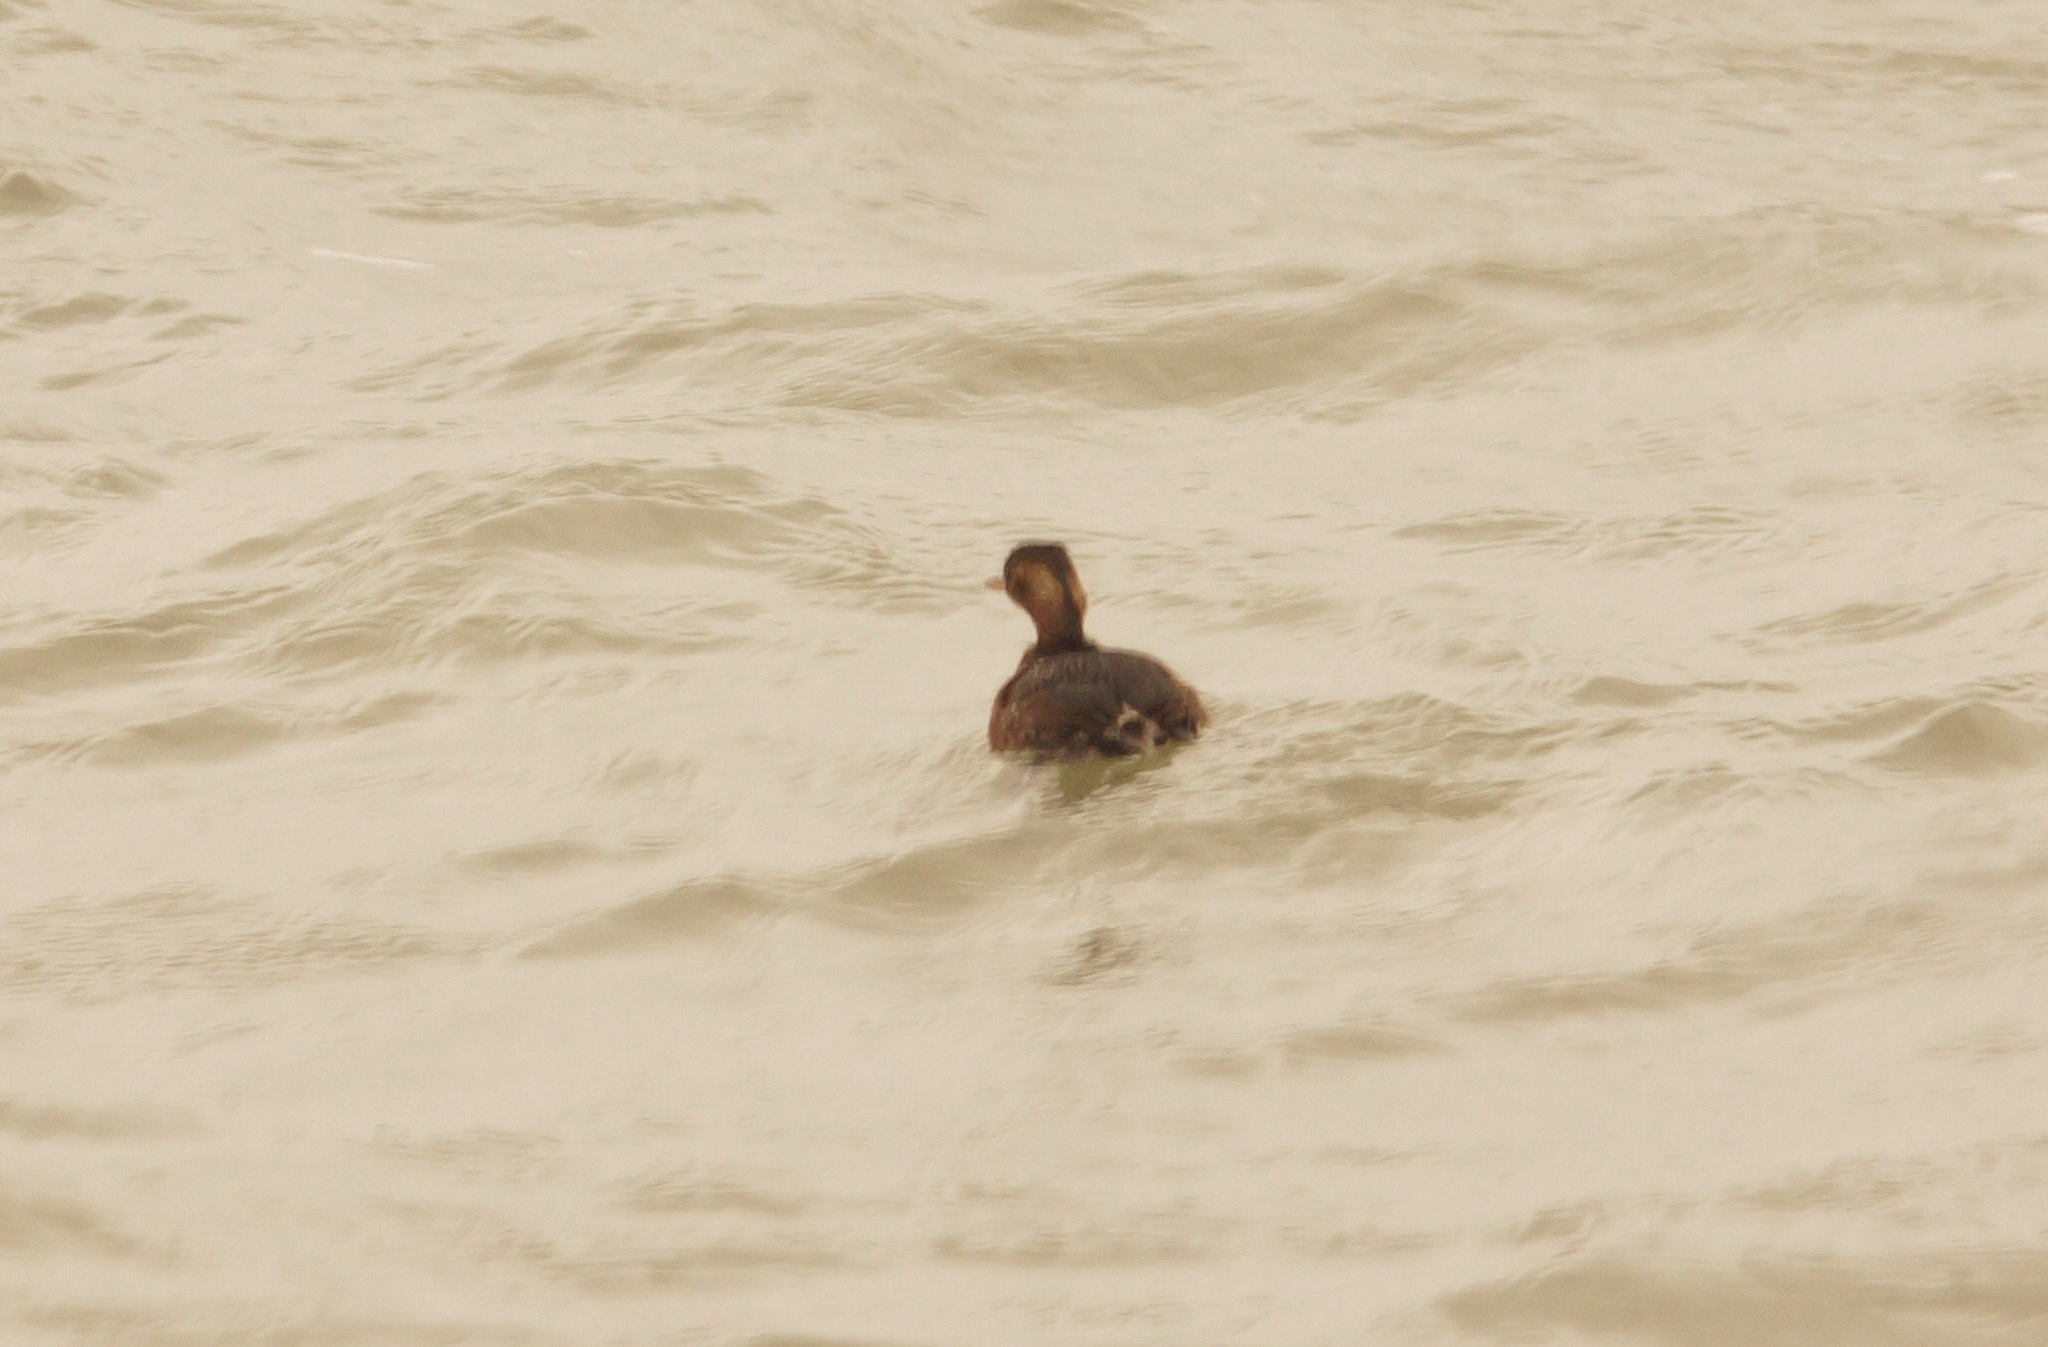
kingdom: Animalia
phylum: Chordata
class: Aves
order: Podicipediformes
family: Podicipedidae
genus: Tachybaptus
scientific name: Tachybaptus ruficollis
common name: Little grebe
